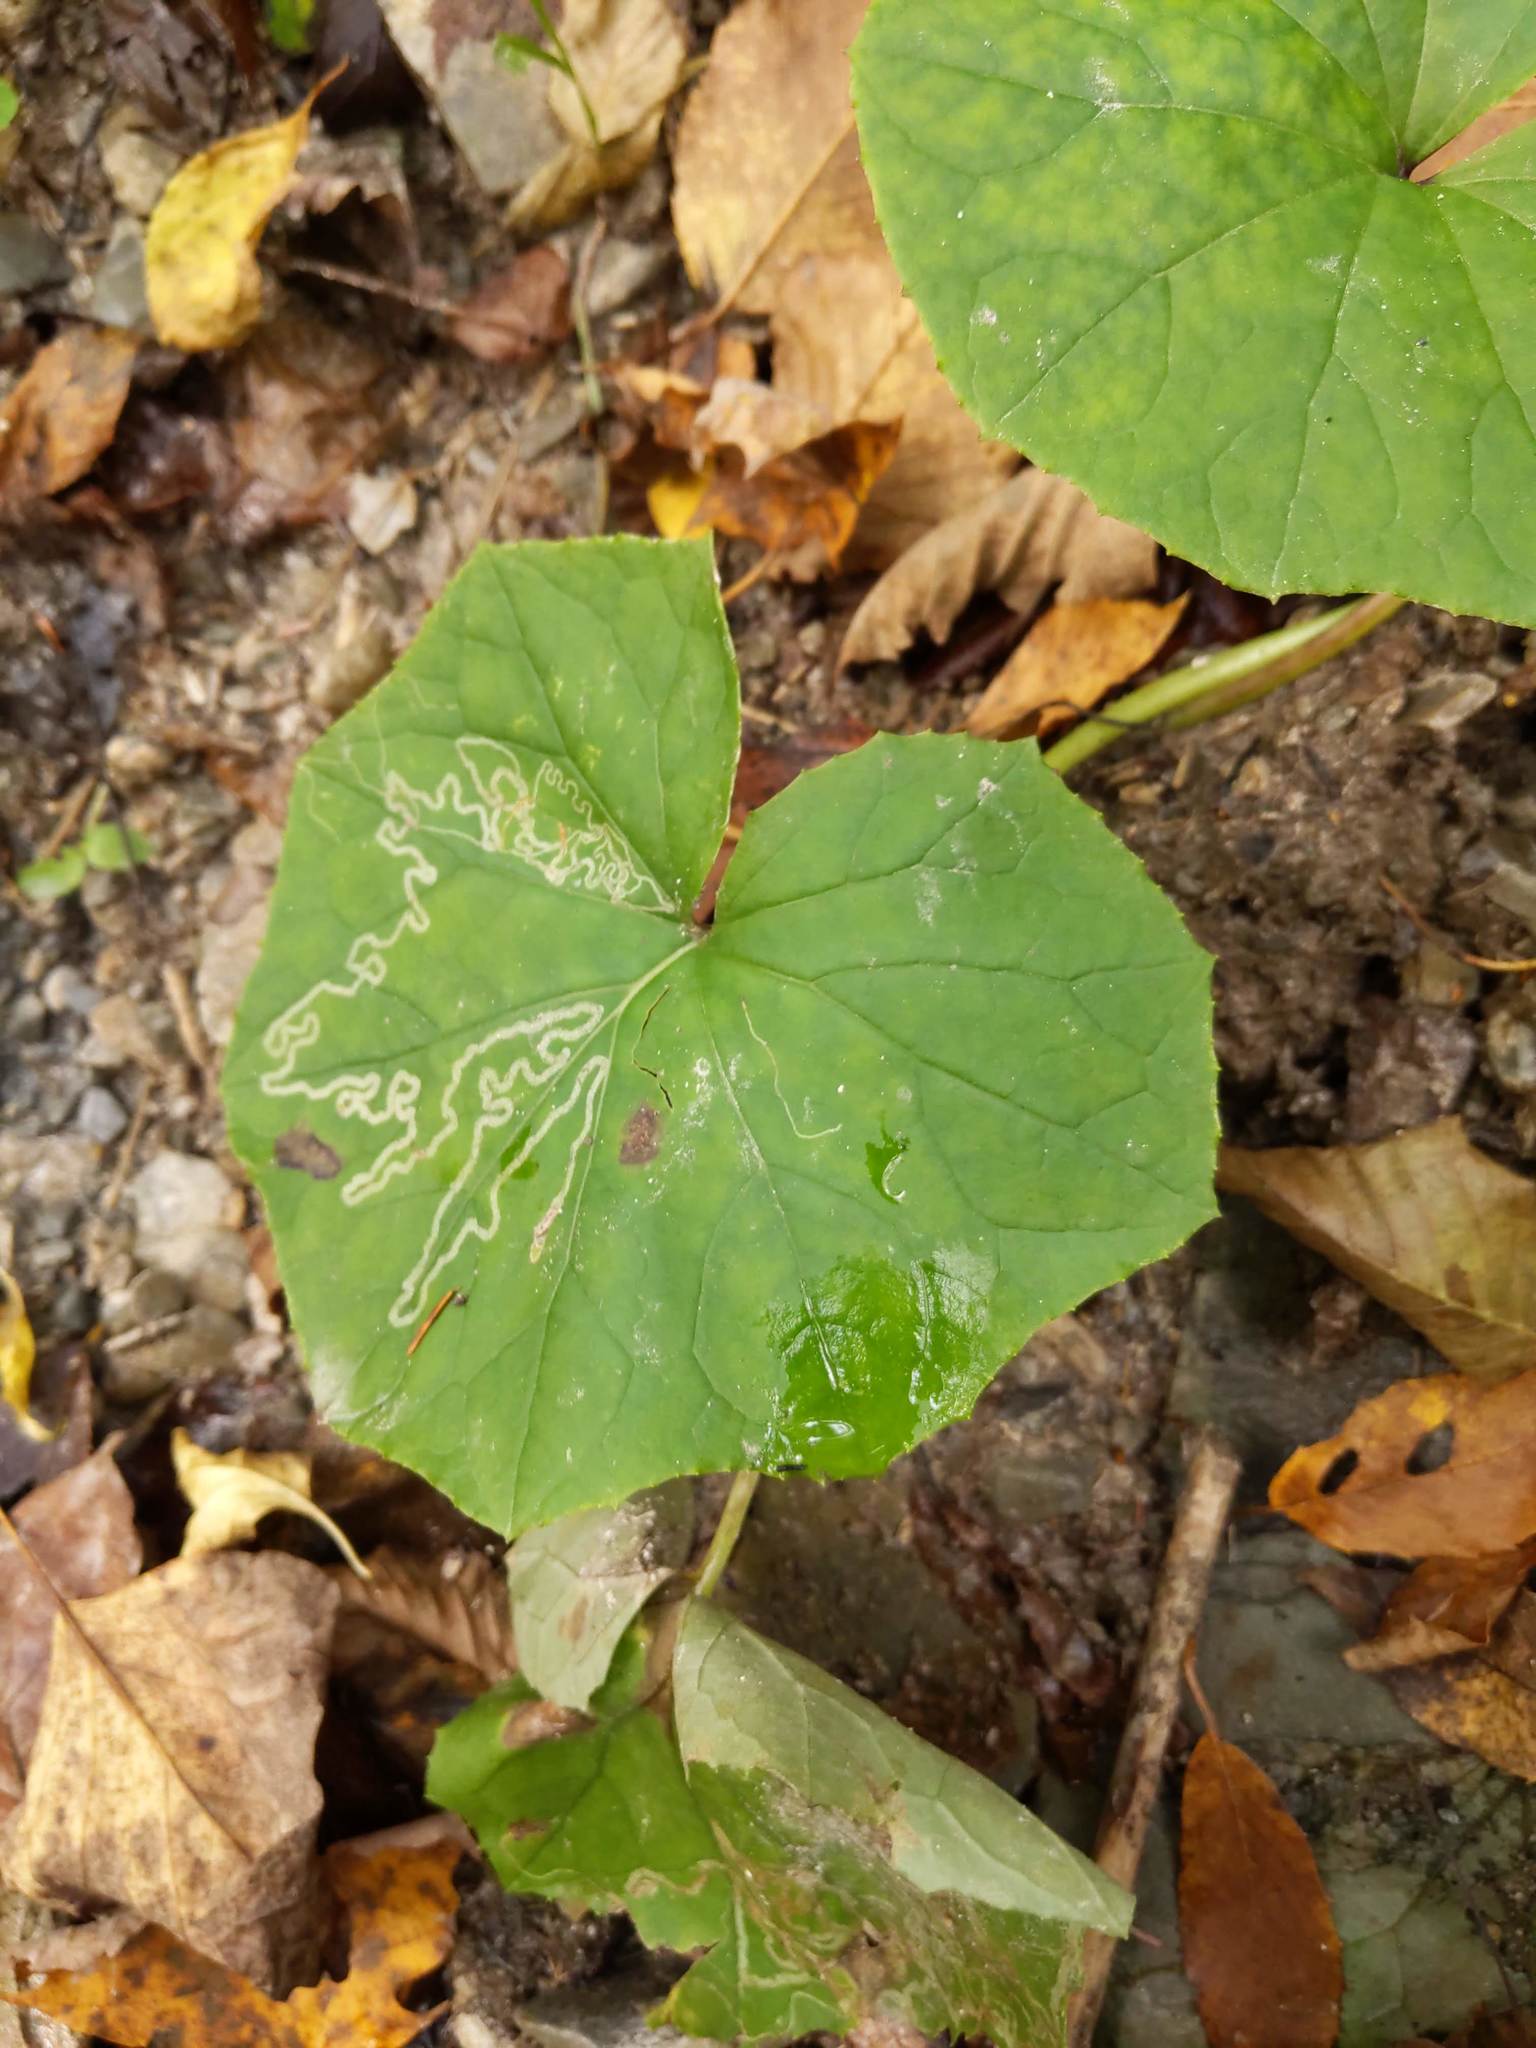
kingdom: Plantae
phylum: Tracheophyta
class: Magnoliopsida
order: Asterales
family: Asteraceae
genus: Tussilago
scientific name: Tussilago farfara
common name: Coltsfoot
